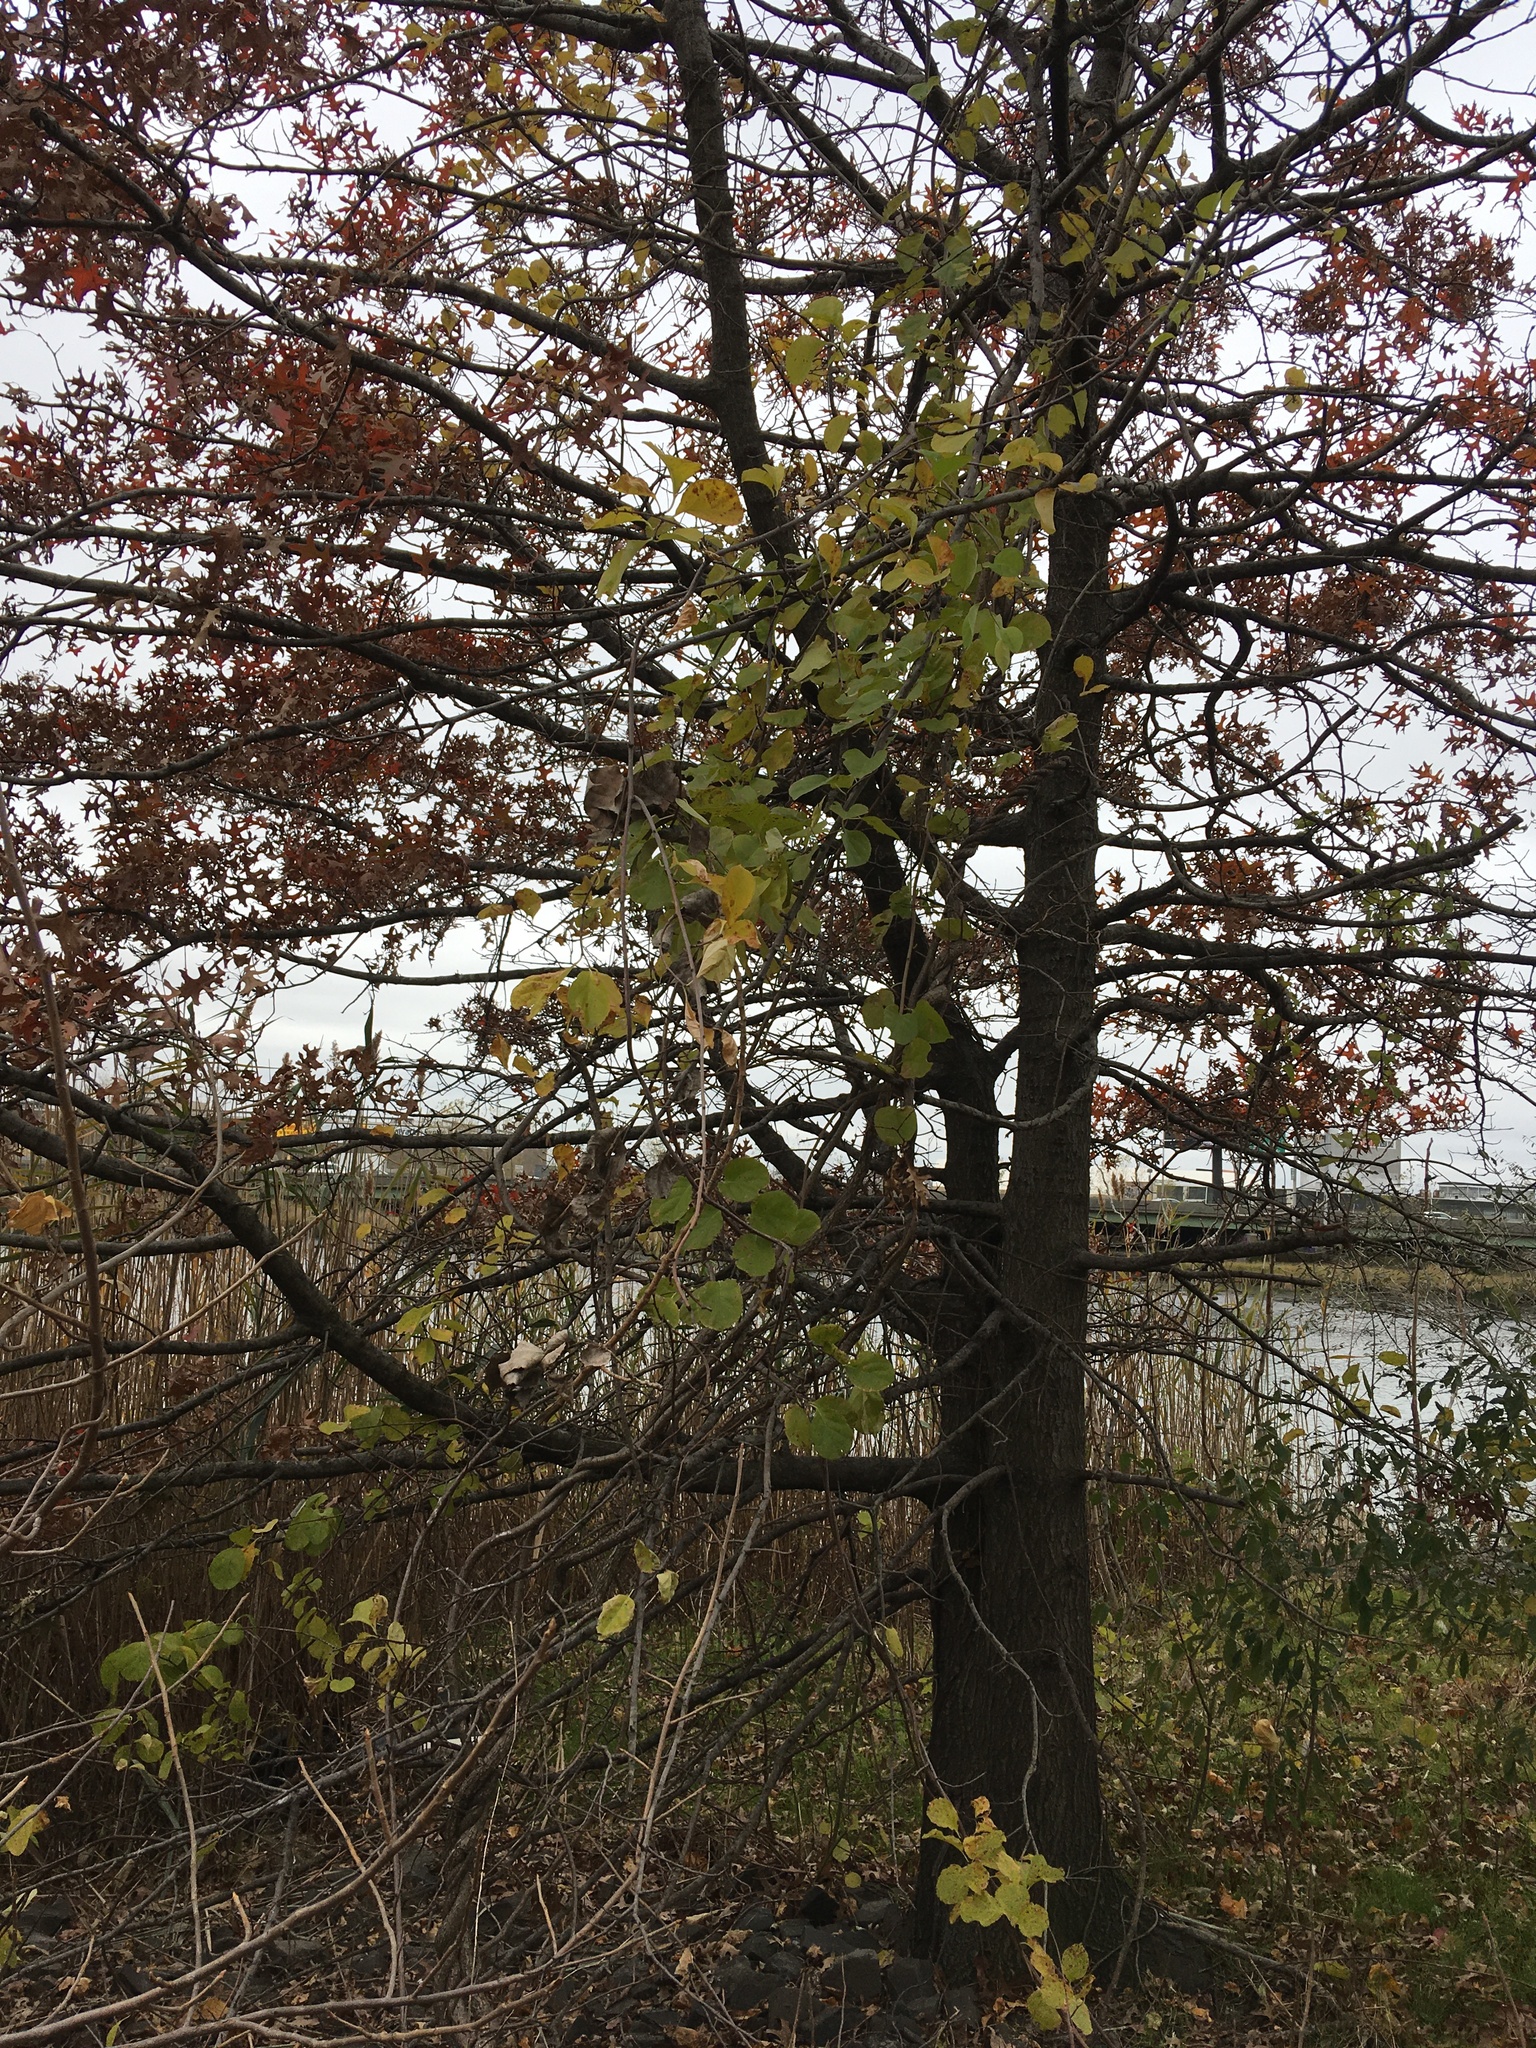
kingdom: Plantae
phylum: Tracheophyta
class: Magnoliopsida
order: Fagales
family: Fagaceae
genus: Quercus
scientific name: Quercus palustris
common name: Pin oak
